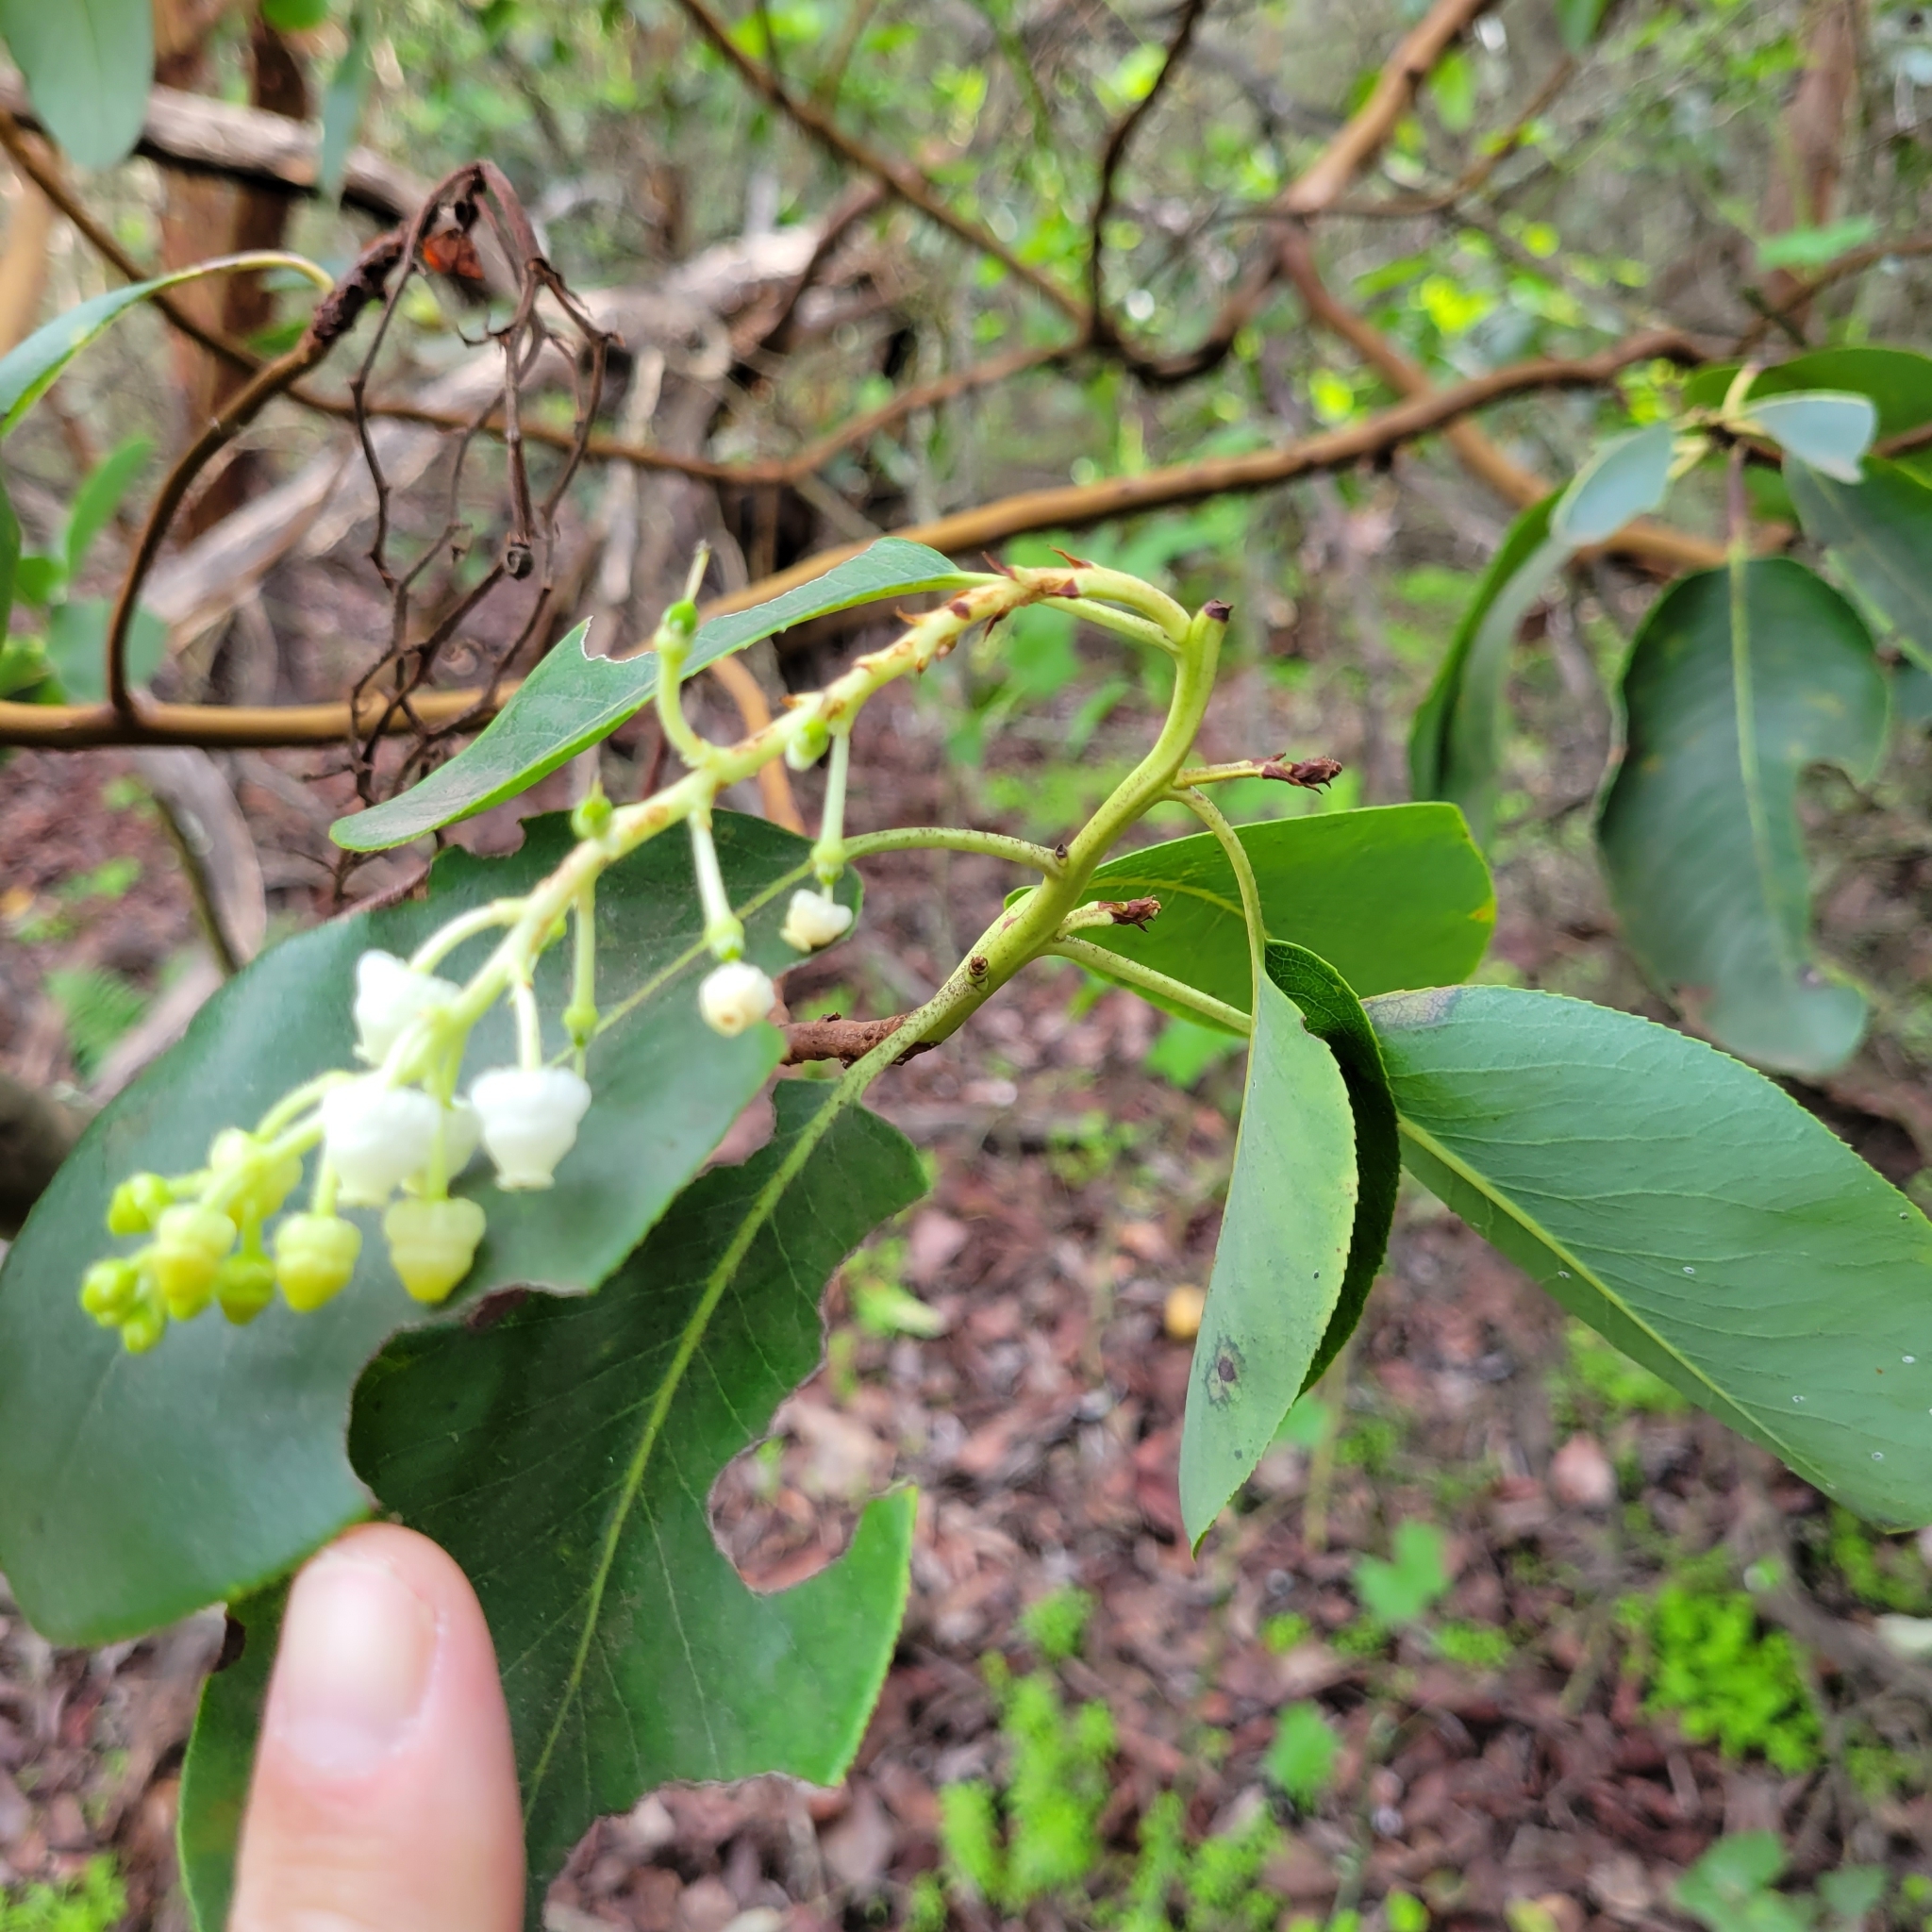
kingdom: Plantae
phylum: Tracheophyta
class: Magnoliopsida
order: Ericales
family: Ericaceae
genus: Arbutus
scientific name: Arbutus menziesii
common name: Pacific madrone
